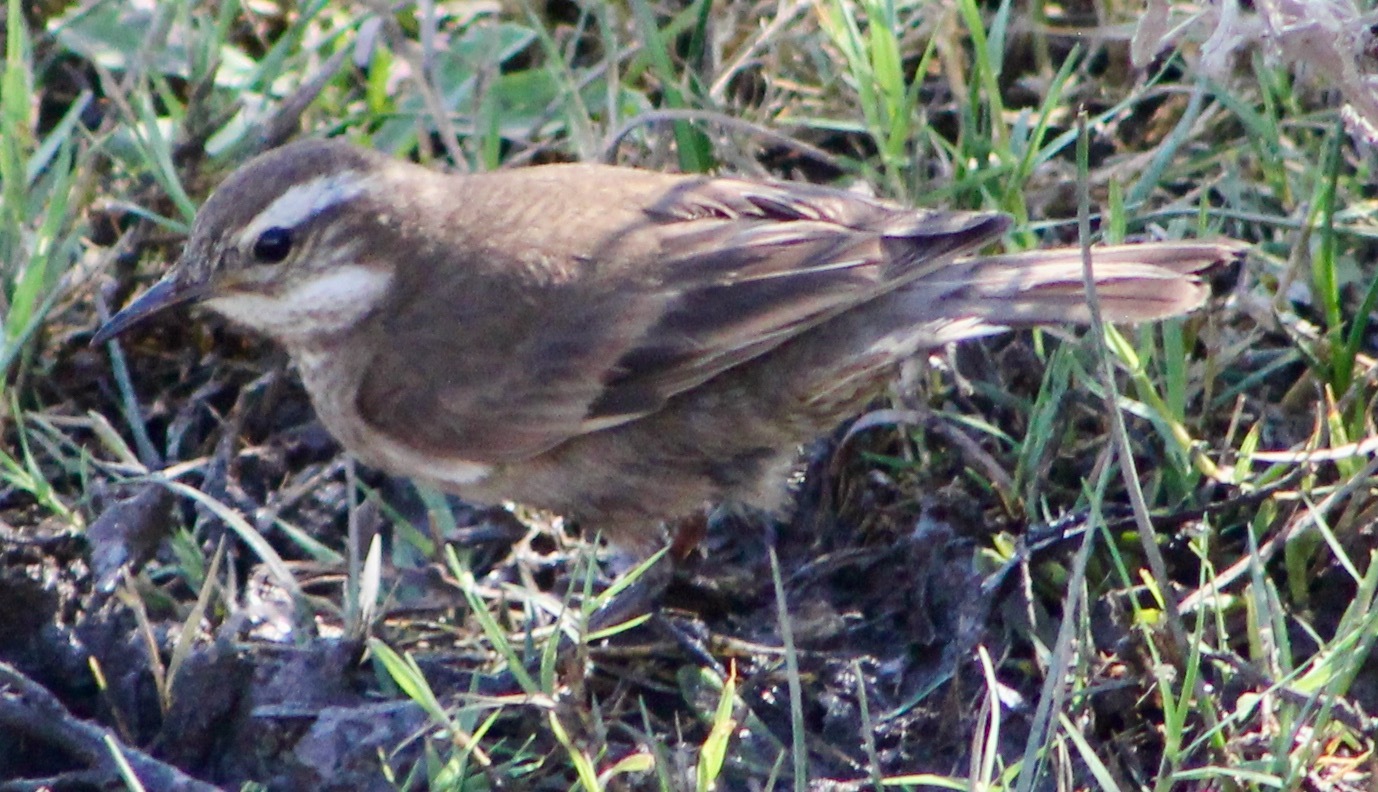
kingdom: Animalia
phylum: Chordata
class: Aves
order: Passeriformes
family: Furnariidae
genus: Cinclodes
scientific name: Cinclodes fuscus
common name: Buff-winged cinclodes
